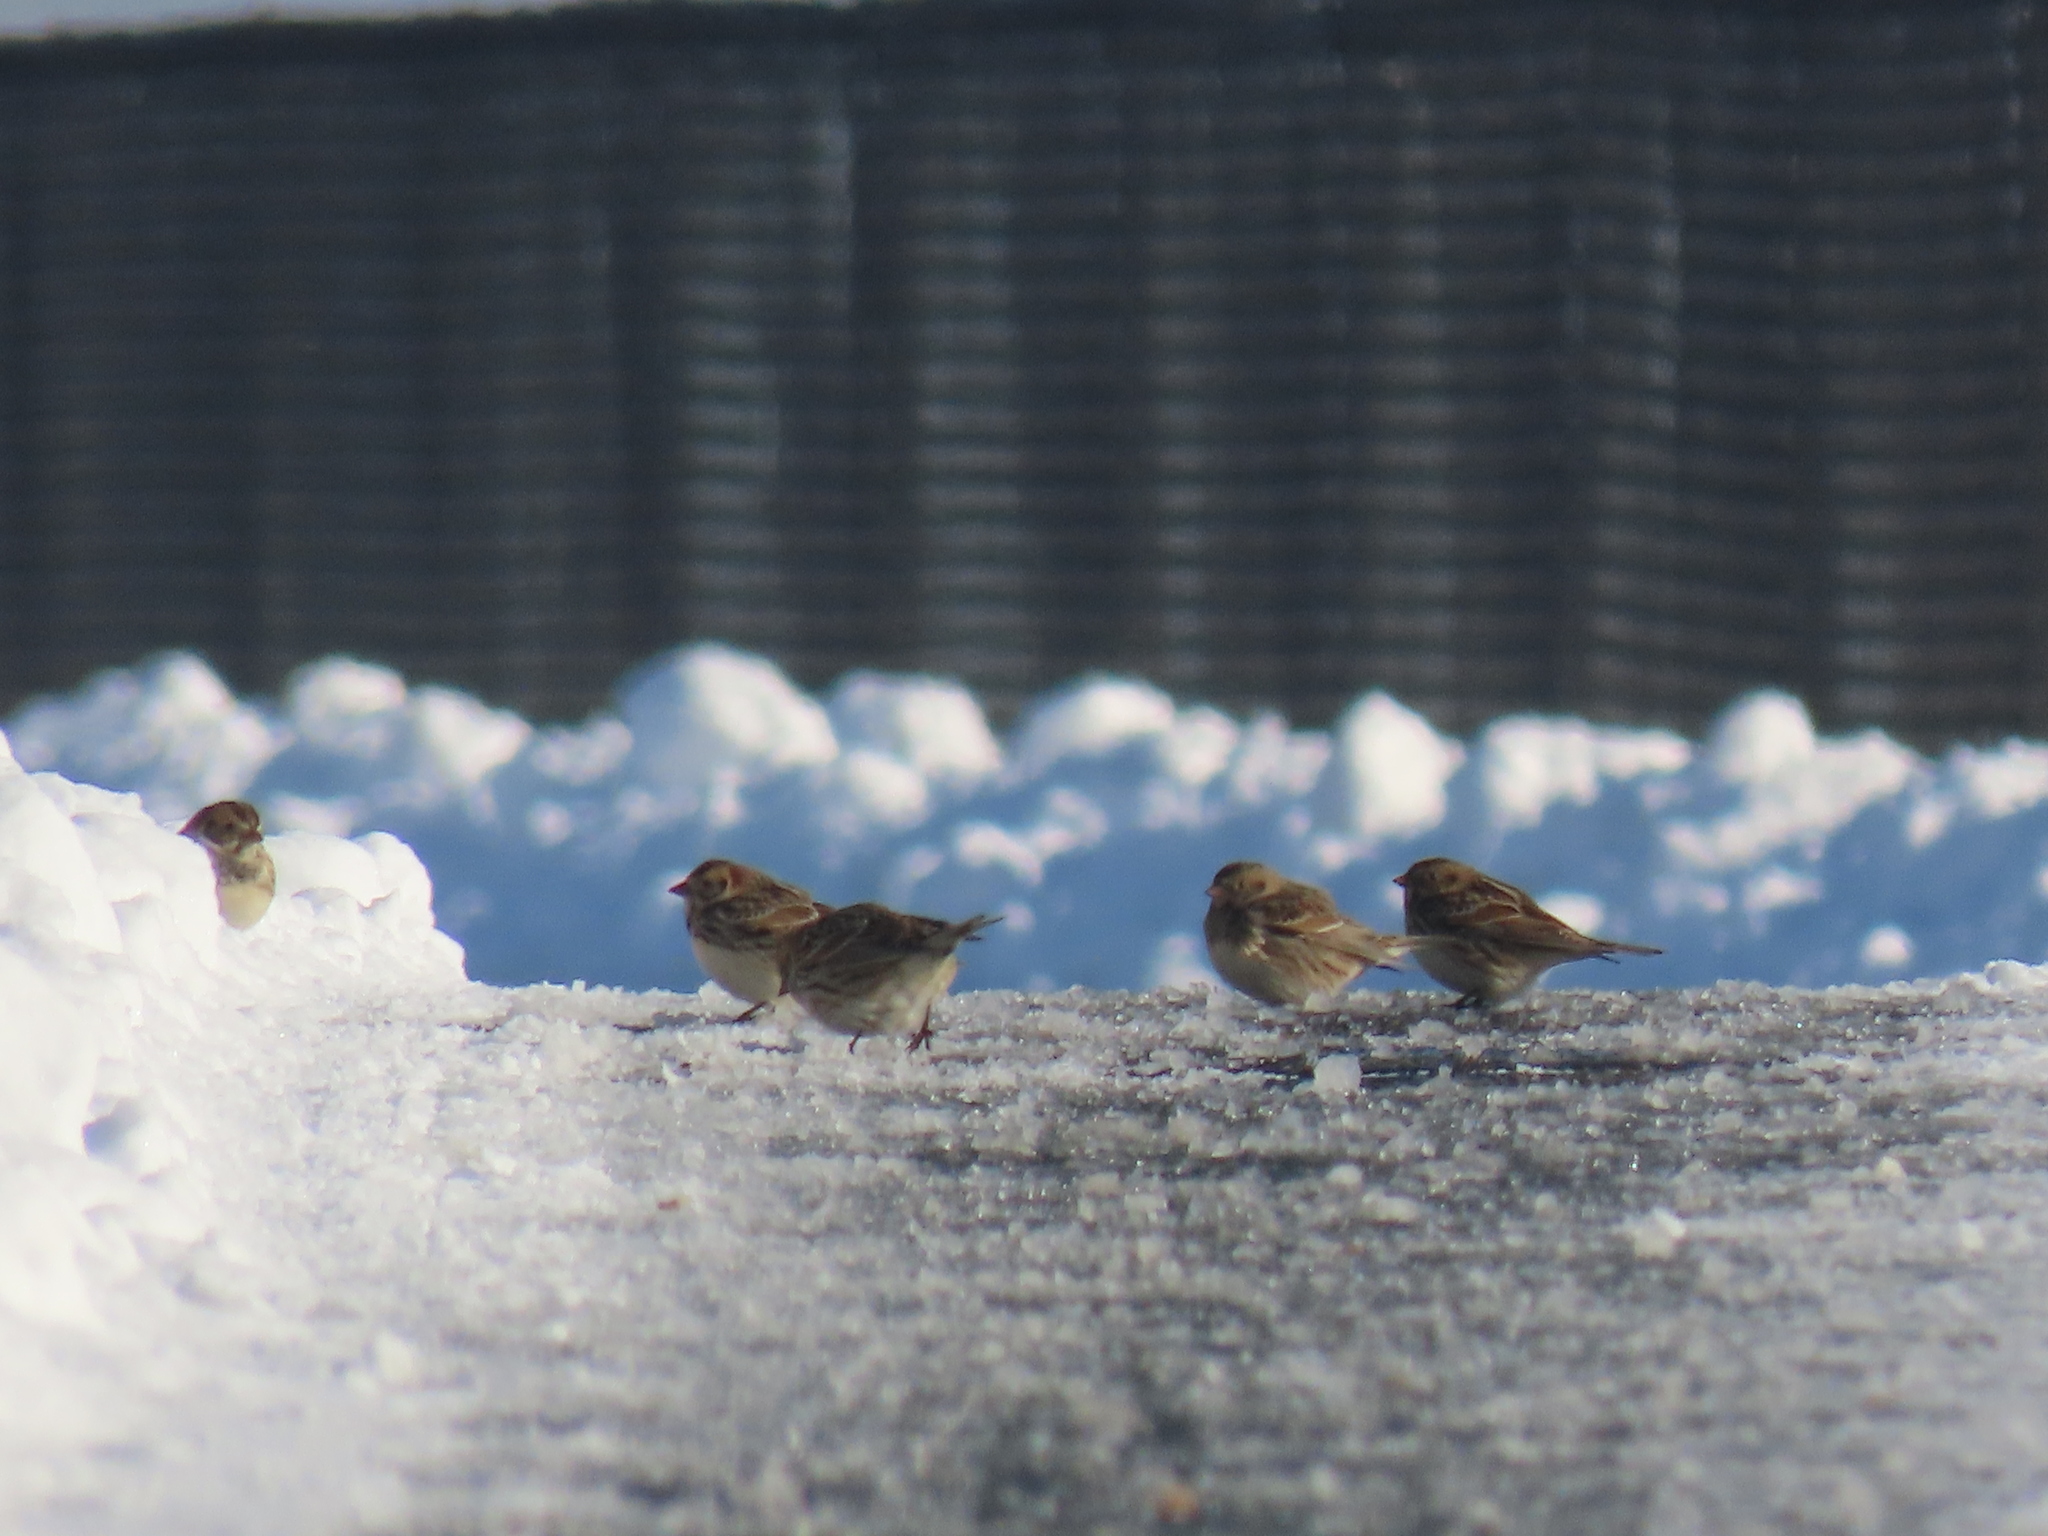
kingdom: Animalia
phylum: Chordata
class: Aves
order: Passeriformes
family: Calcariidae
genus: Calcarius
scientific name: Calcarius lapponicus
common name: Lapland longspur
